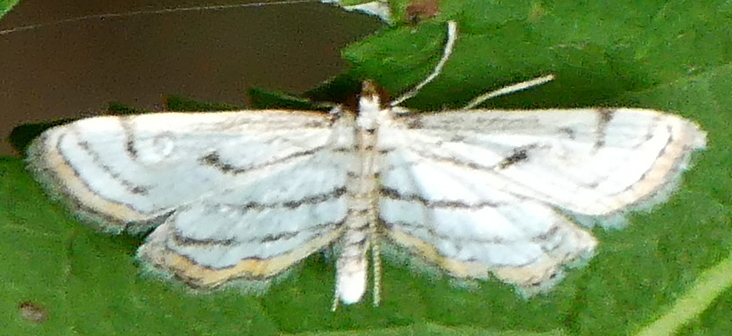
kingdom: Animalia
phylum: Arthropoda
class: Insecta
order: Lepidoptera
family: Crambidae
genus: Parapoynx
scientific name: Parapoynx badiusalis
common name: Chestnut-marked pondweed moth
